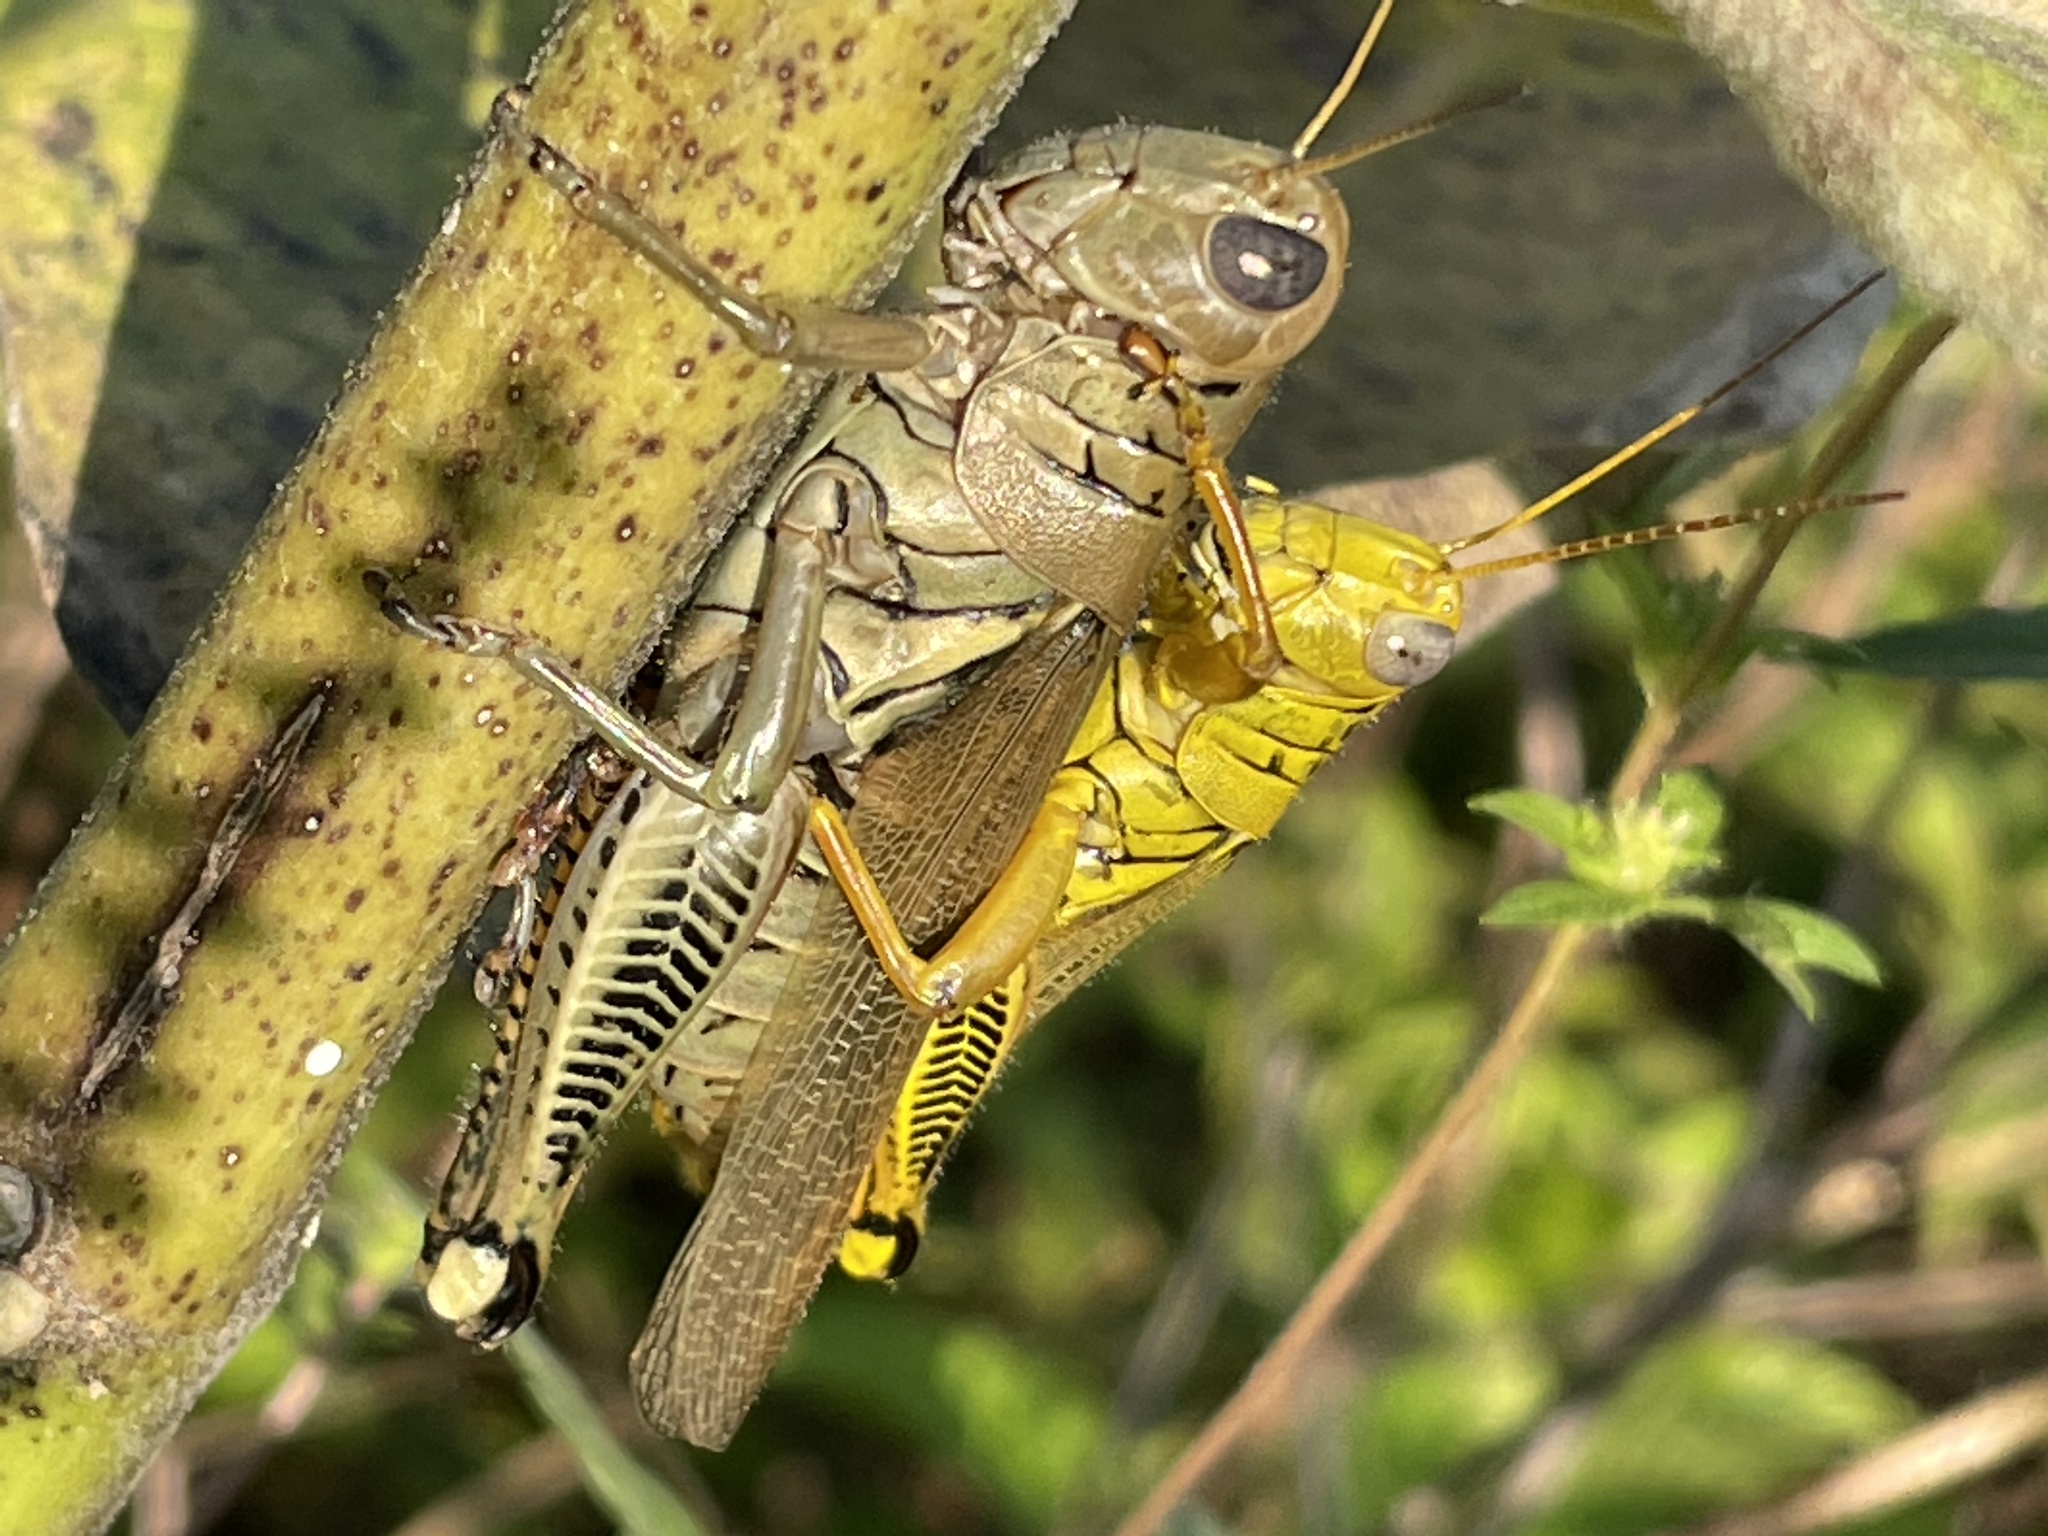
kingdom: Animalia
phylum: Arthropoda
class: Insecta
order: Orthoptera
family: Acrididae
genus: Melanoplus
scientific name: Melanoplus differentialis
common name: Differential grasshopper
